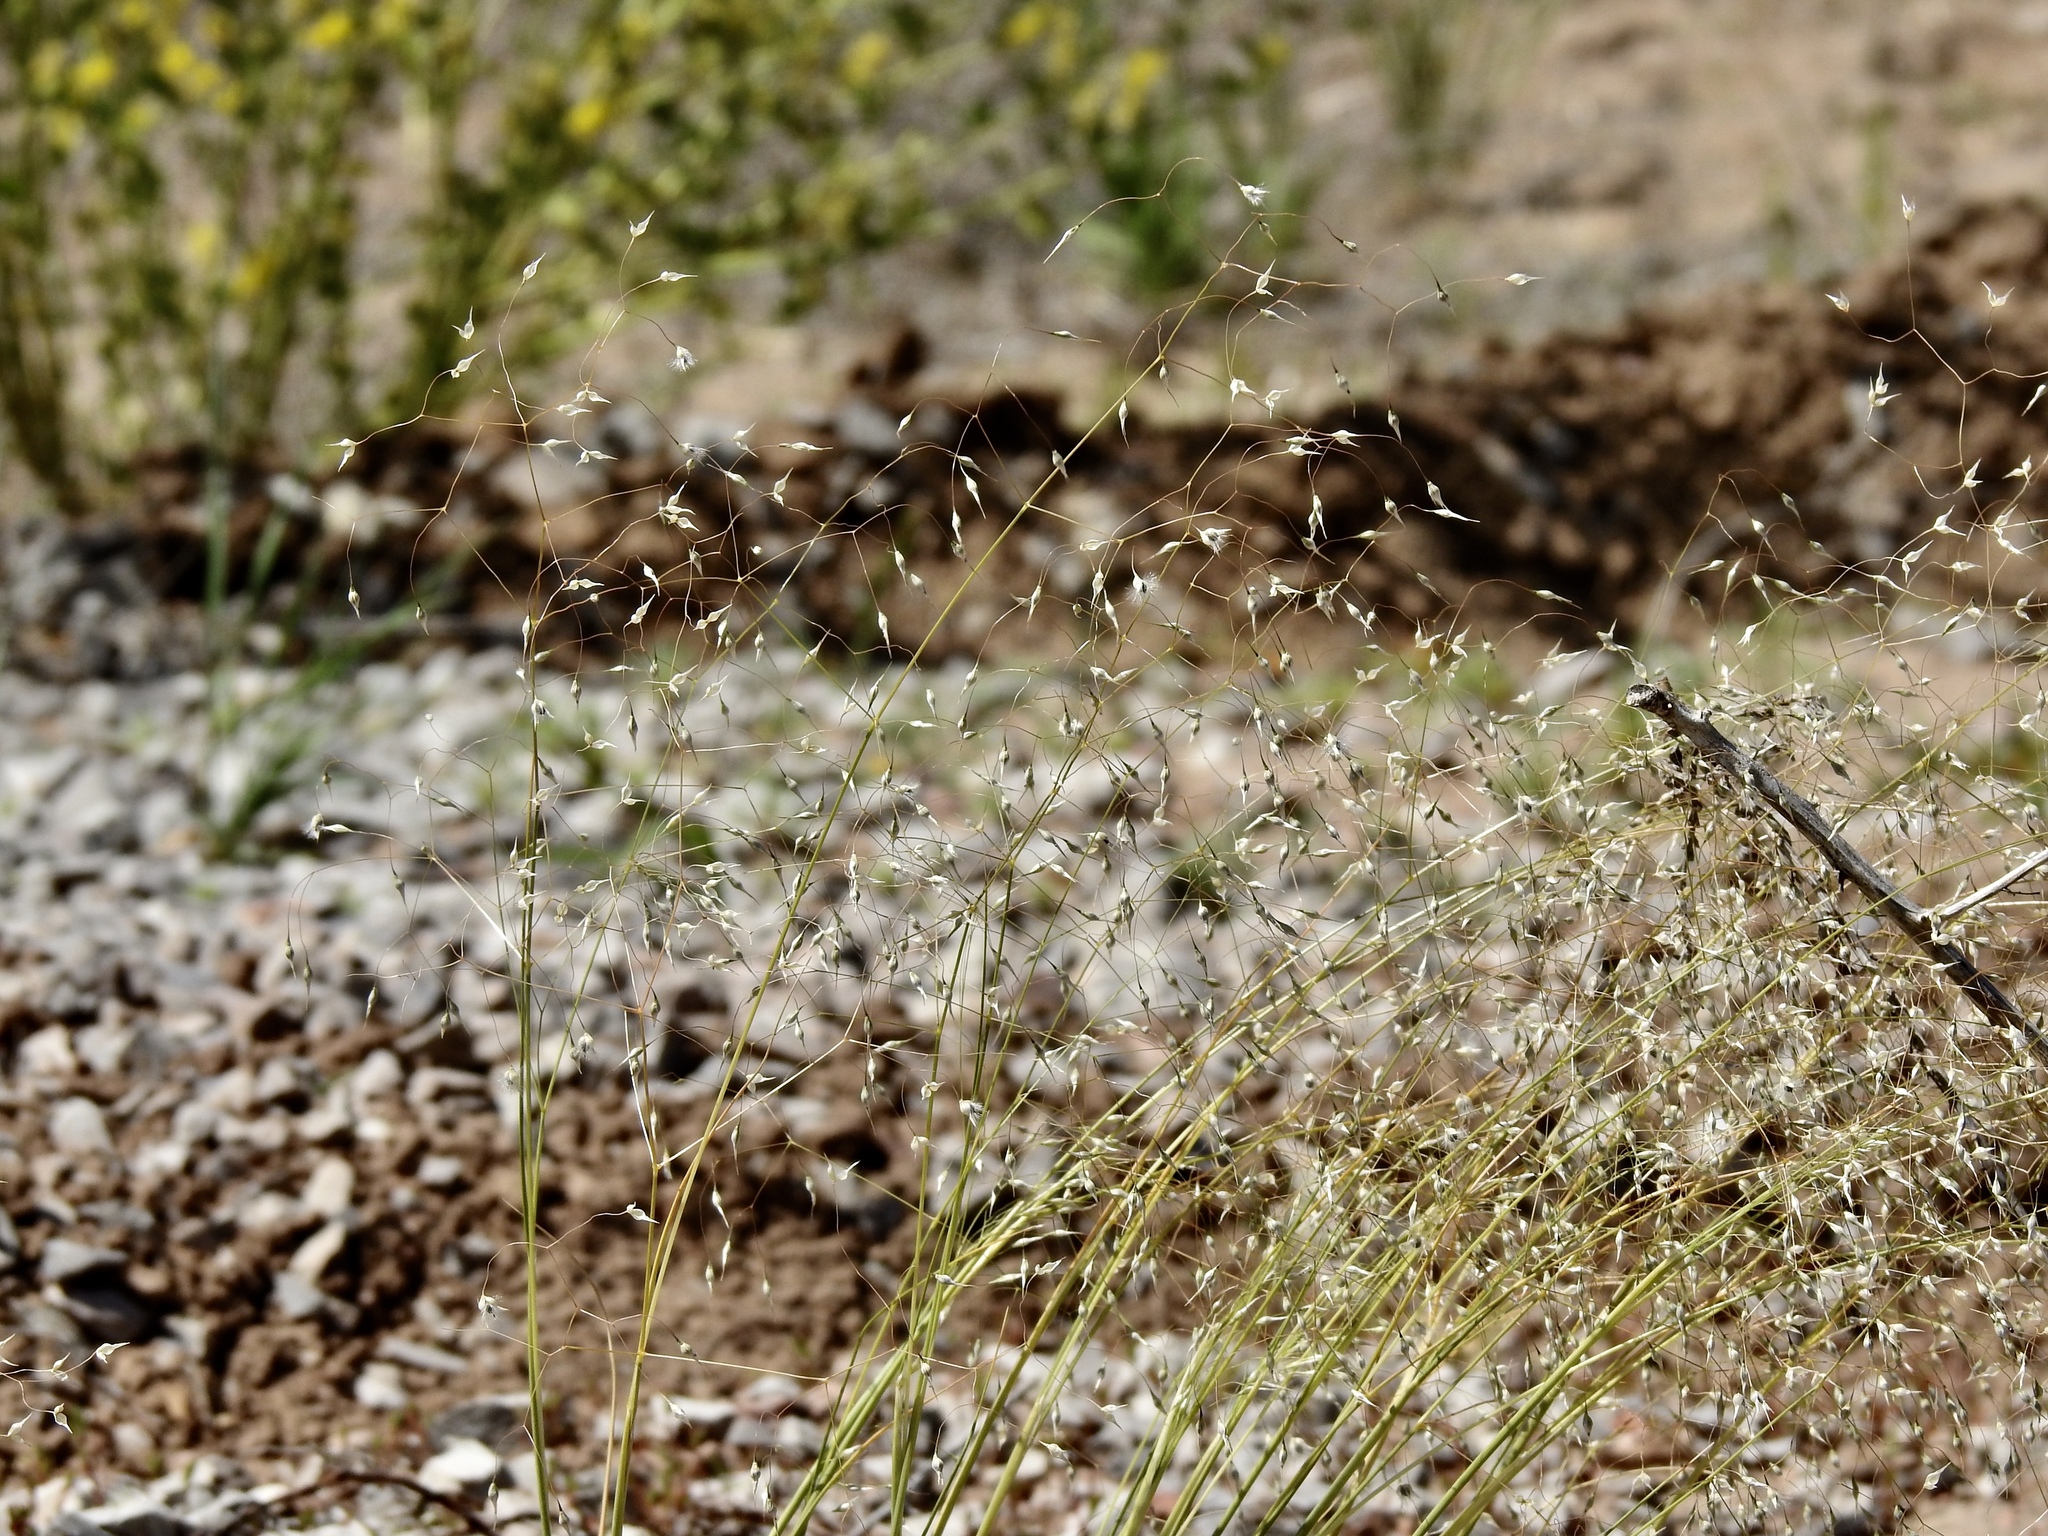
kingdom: Plantae
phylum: Tracheophyta
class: Liliopsida
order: Poales
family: Poaceae
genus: Eriocoma
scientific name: Eriocoma hymenoides
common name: Indian mountain ricegrass
